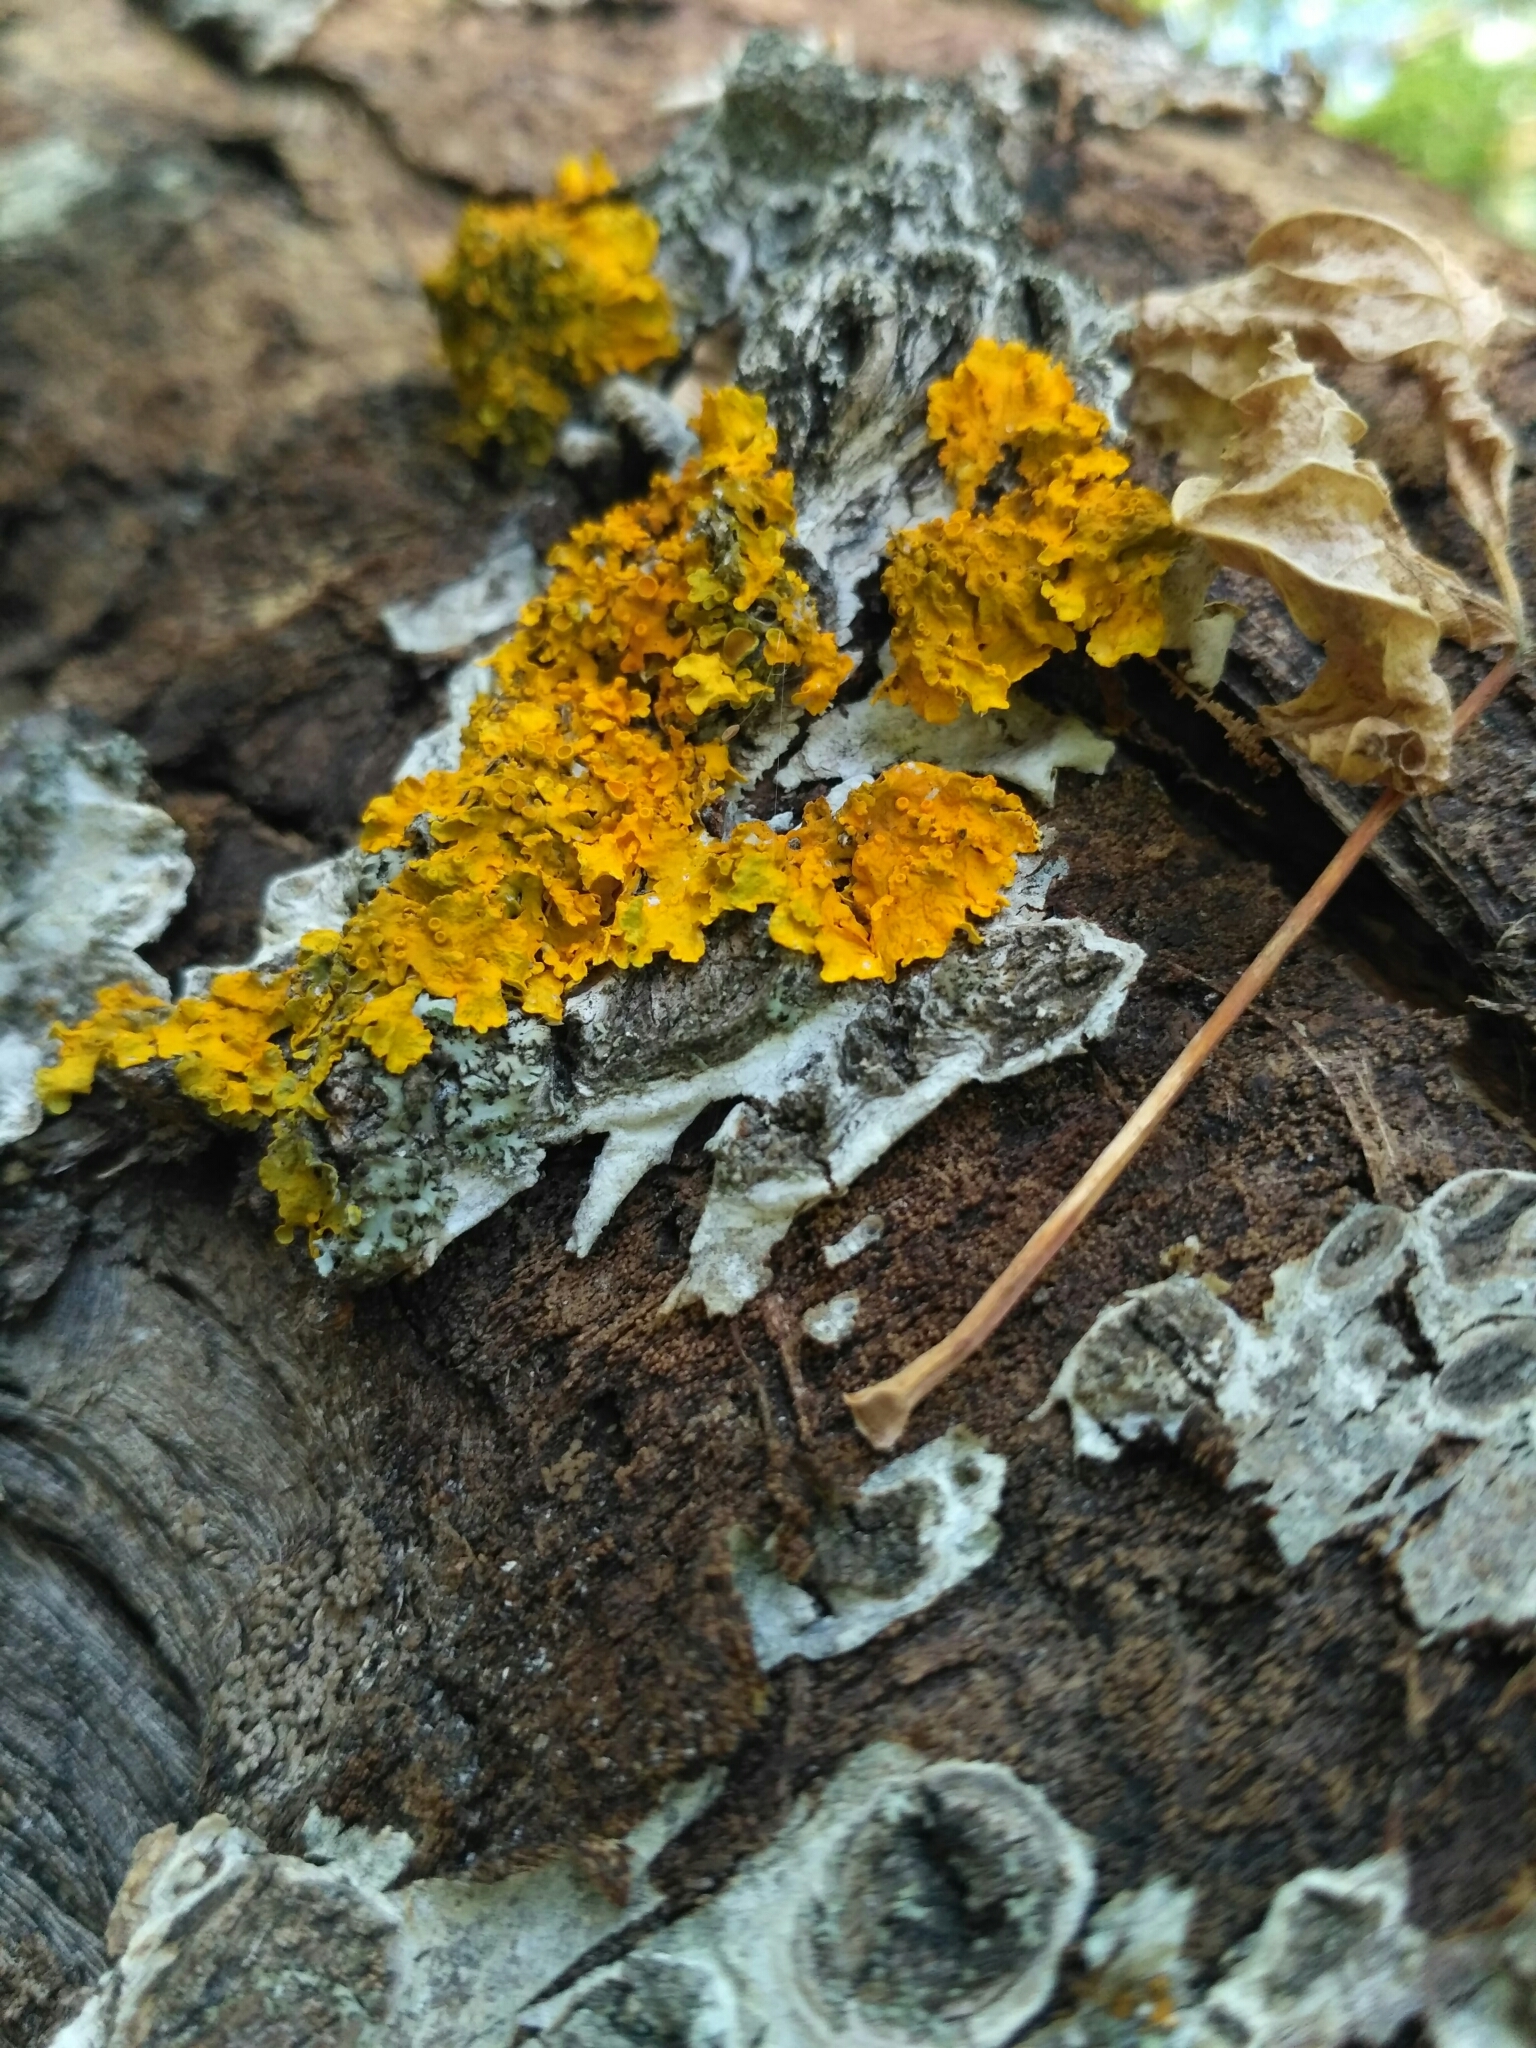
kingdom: Fungi
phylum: Ascomycota
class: Lecanoromycetes
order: Teloschistales
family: Teloschistaceae
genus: Xanthoria
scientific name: Xanthoria parietina
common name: Common orange lichen
